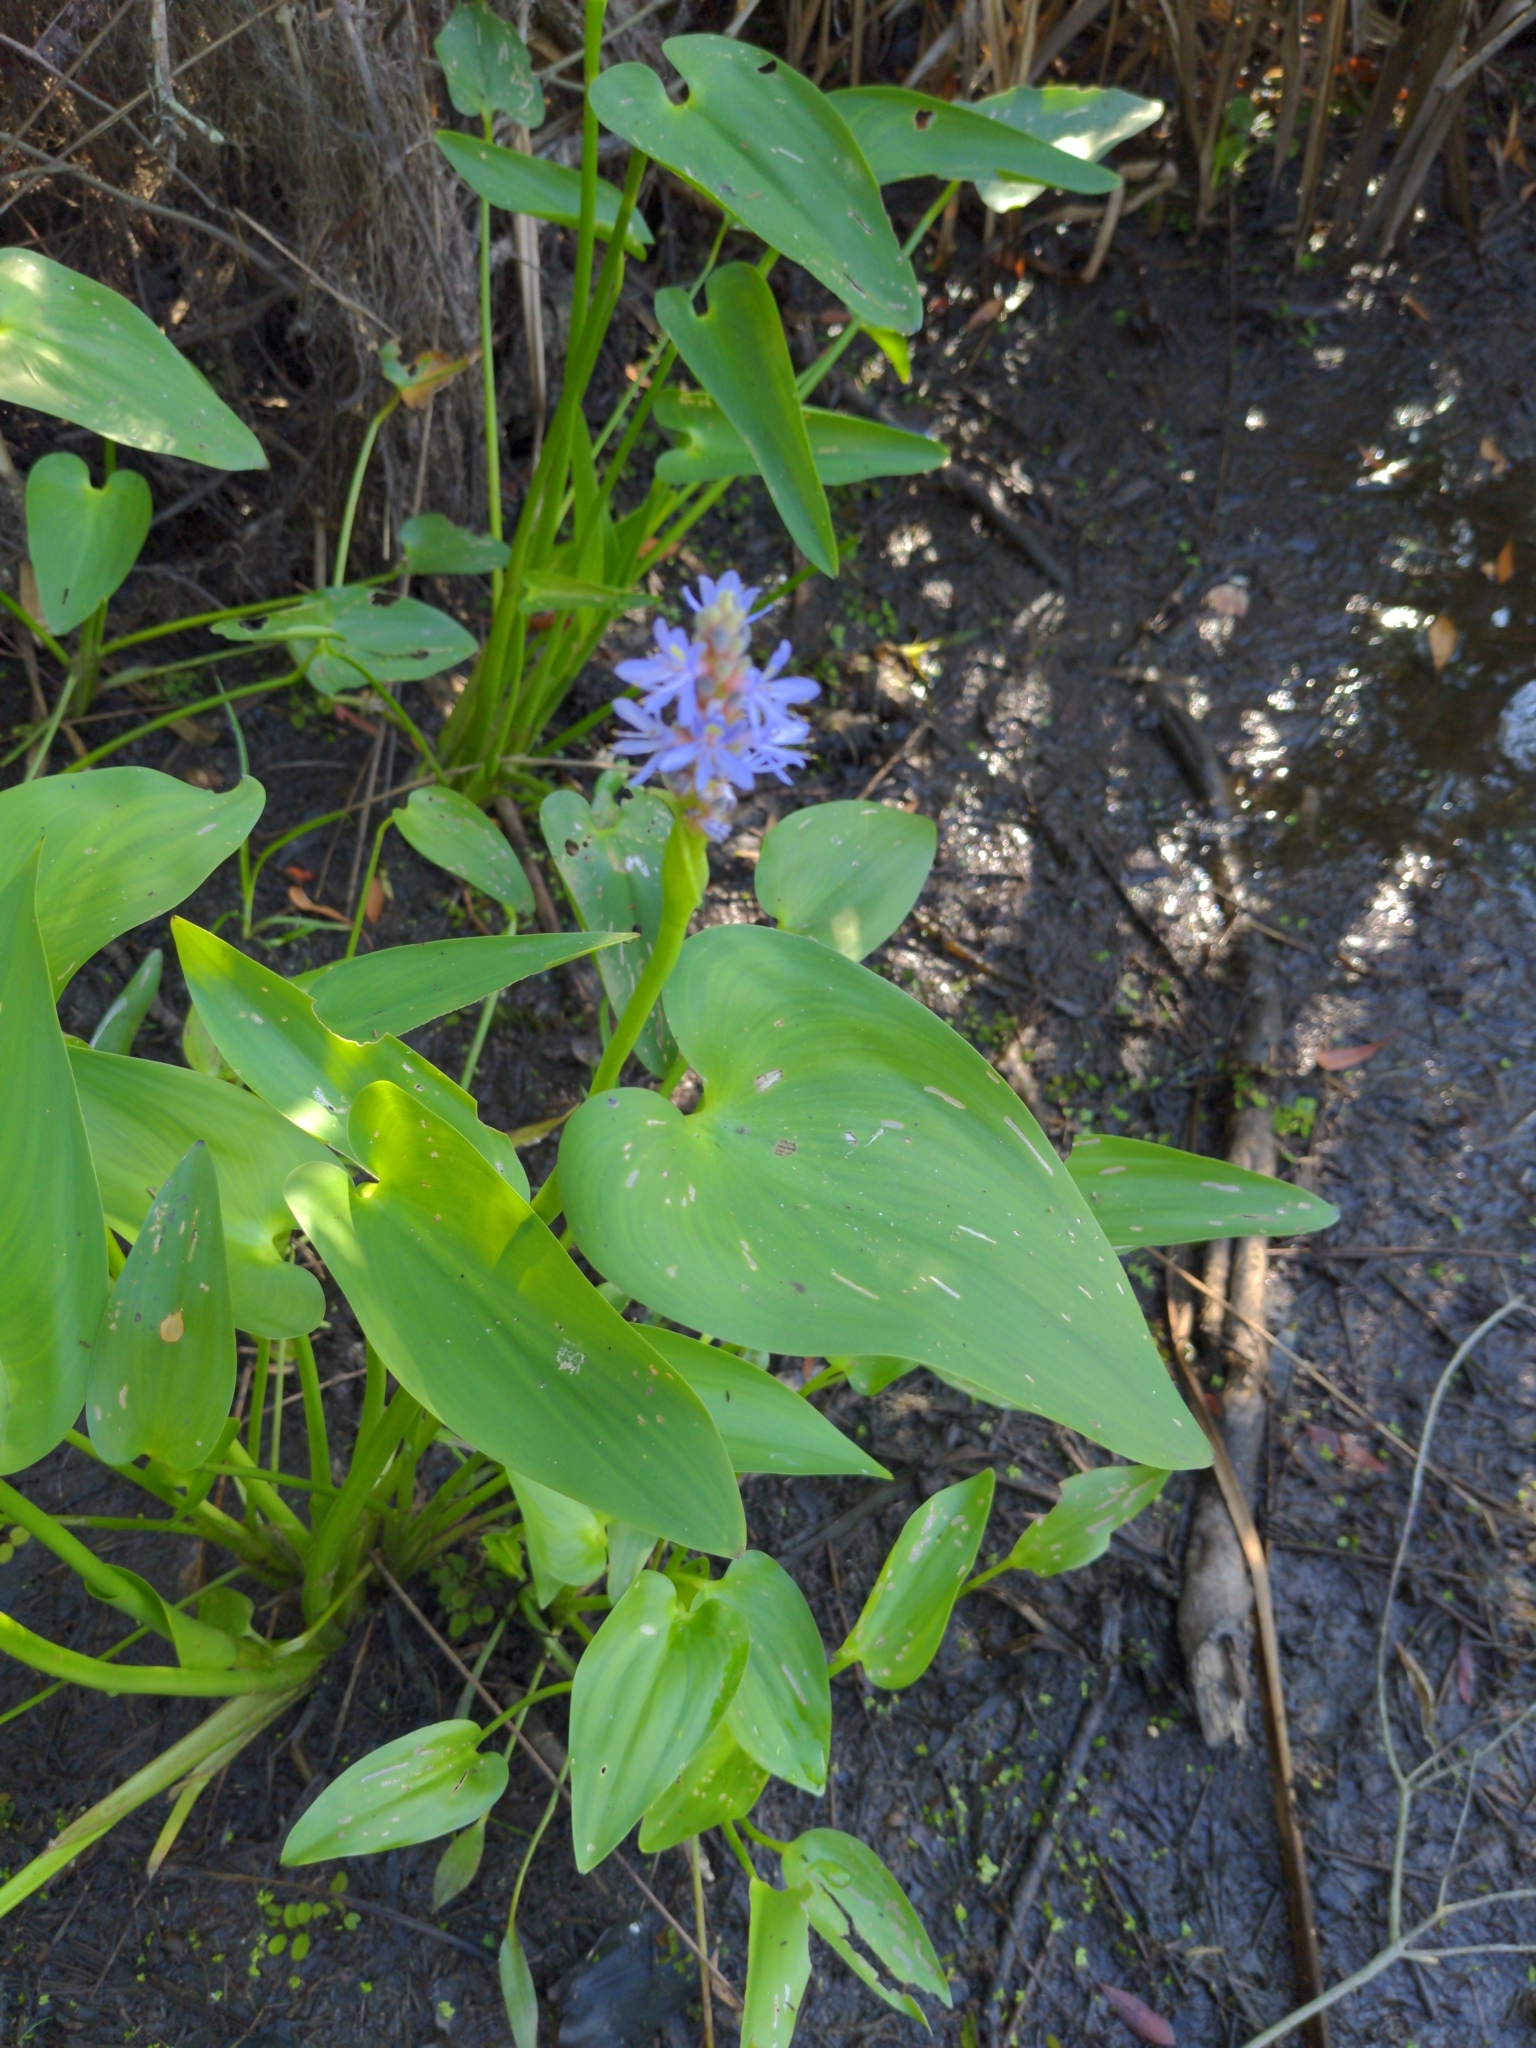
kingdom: Plantae
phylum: Tracheophyta
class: Liliopsida
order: Commelinales
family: Pontederiaceae
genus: Pontederia
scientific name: Pontederia cordata
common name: Pickerelweed
